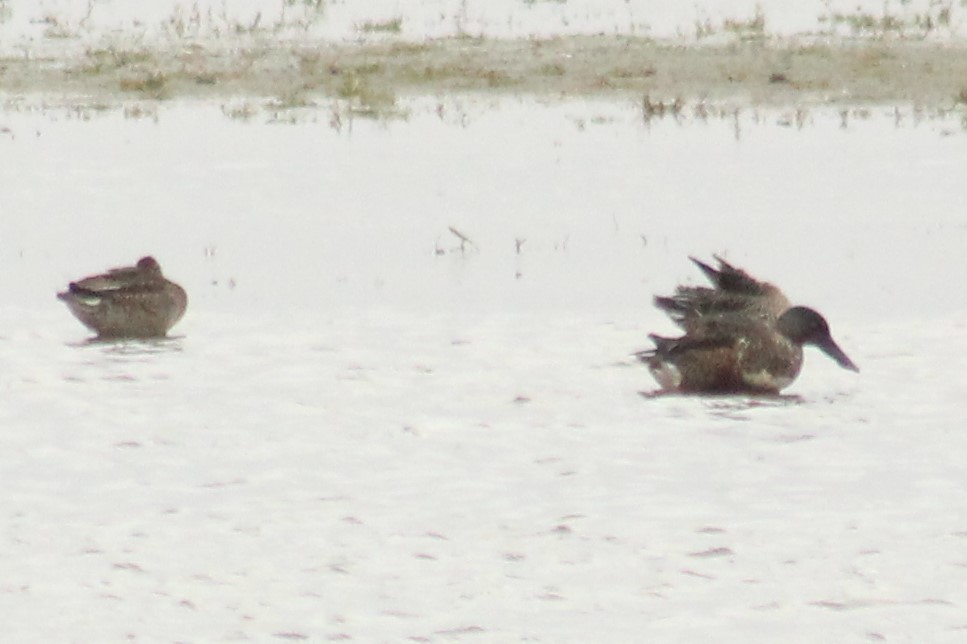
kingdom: Animalia
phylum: Chordata
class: Aves
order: Anseriformes
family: Anatidae
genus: Spatula
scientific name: Spatula clypeata
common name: Northern shoveler
